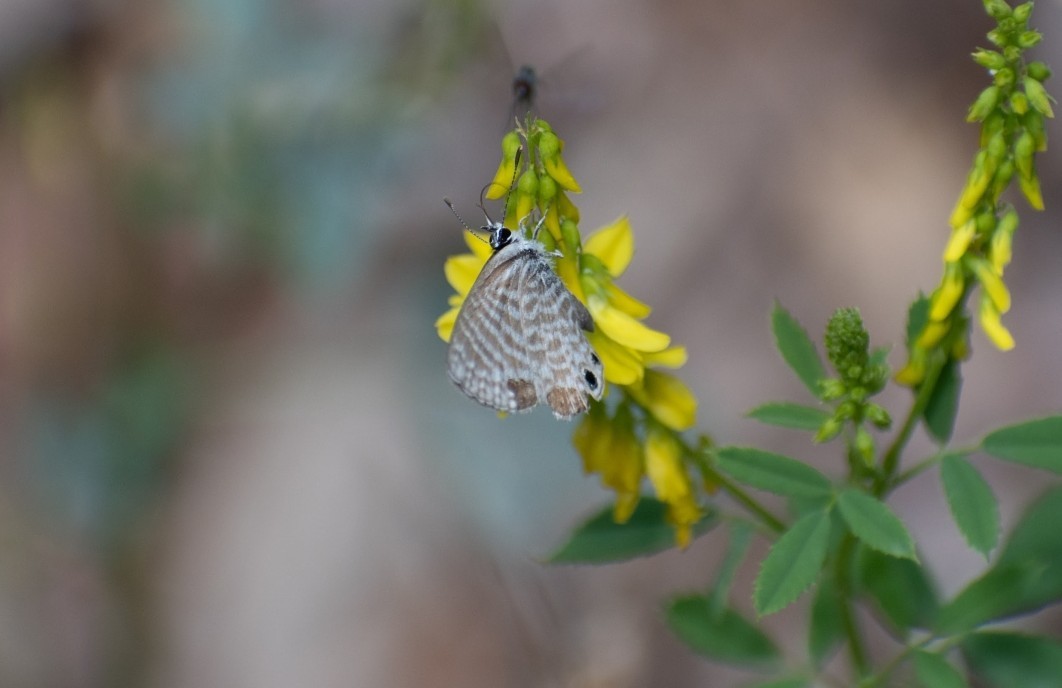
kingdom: Animalia
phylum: Arthropoda
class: Insecta
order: Lepidoptera
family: Lycaenidae
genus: Leptotes
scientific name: Leptotes marina
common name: Marine blue
